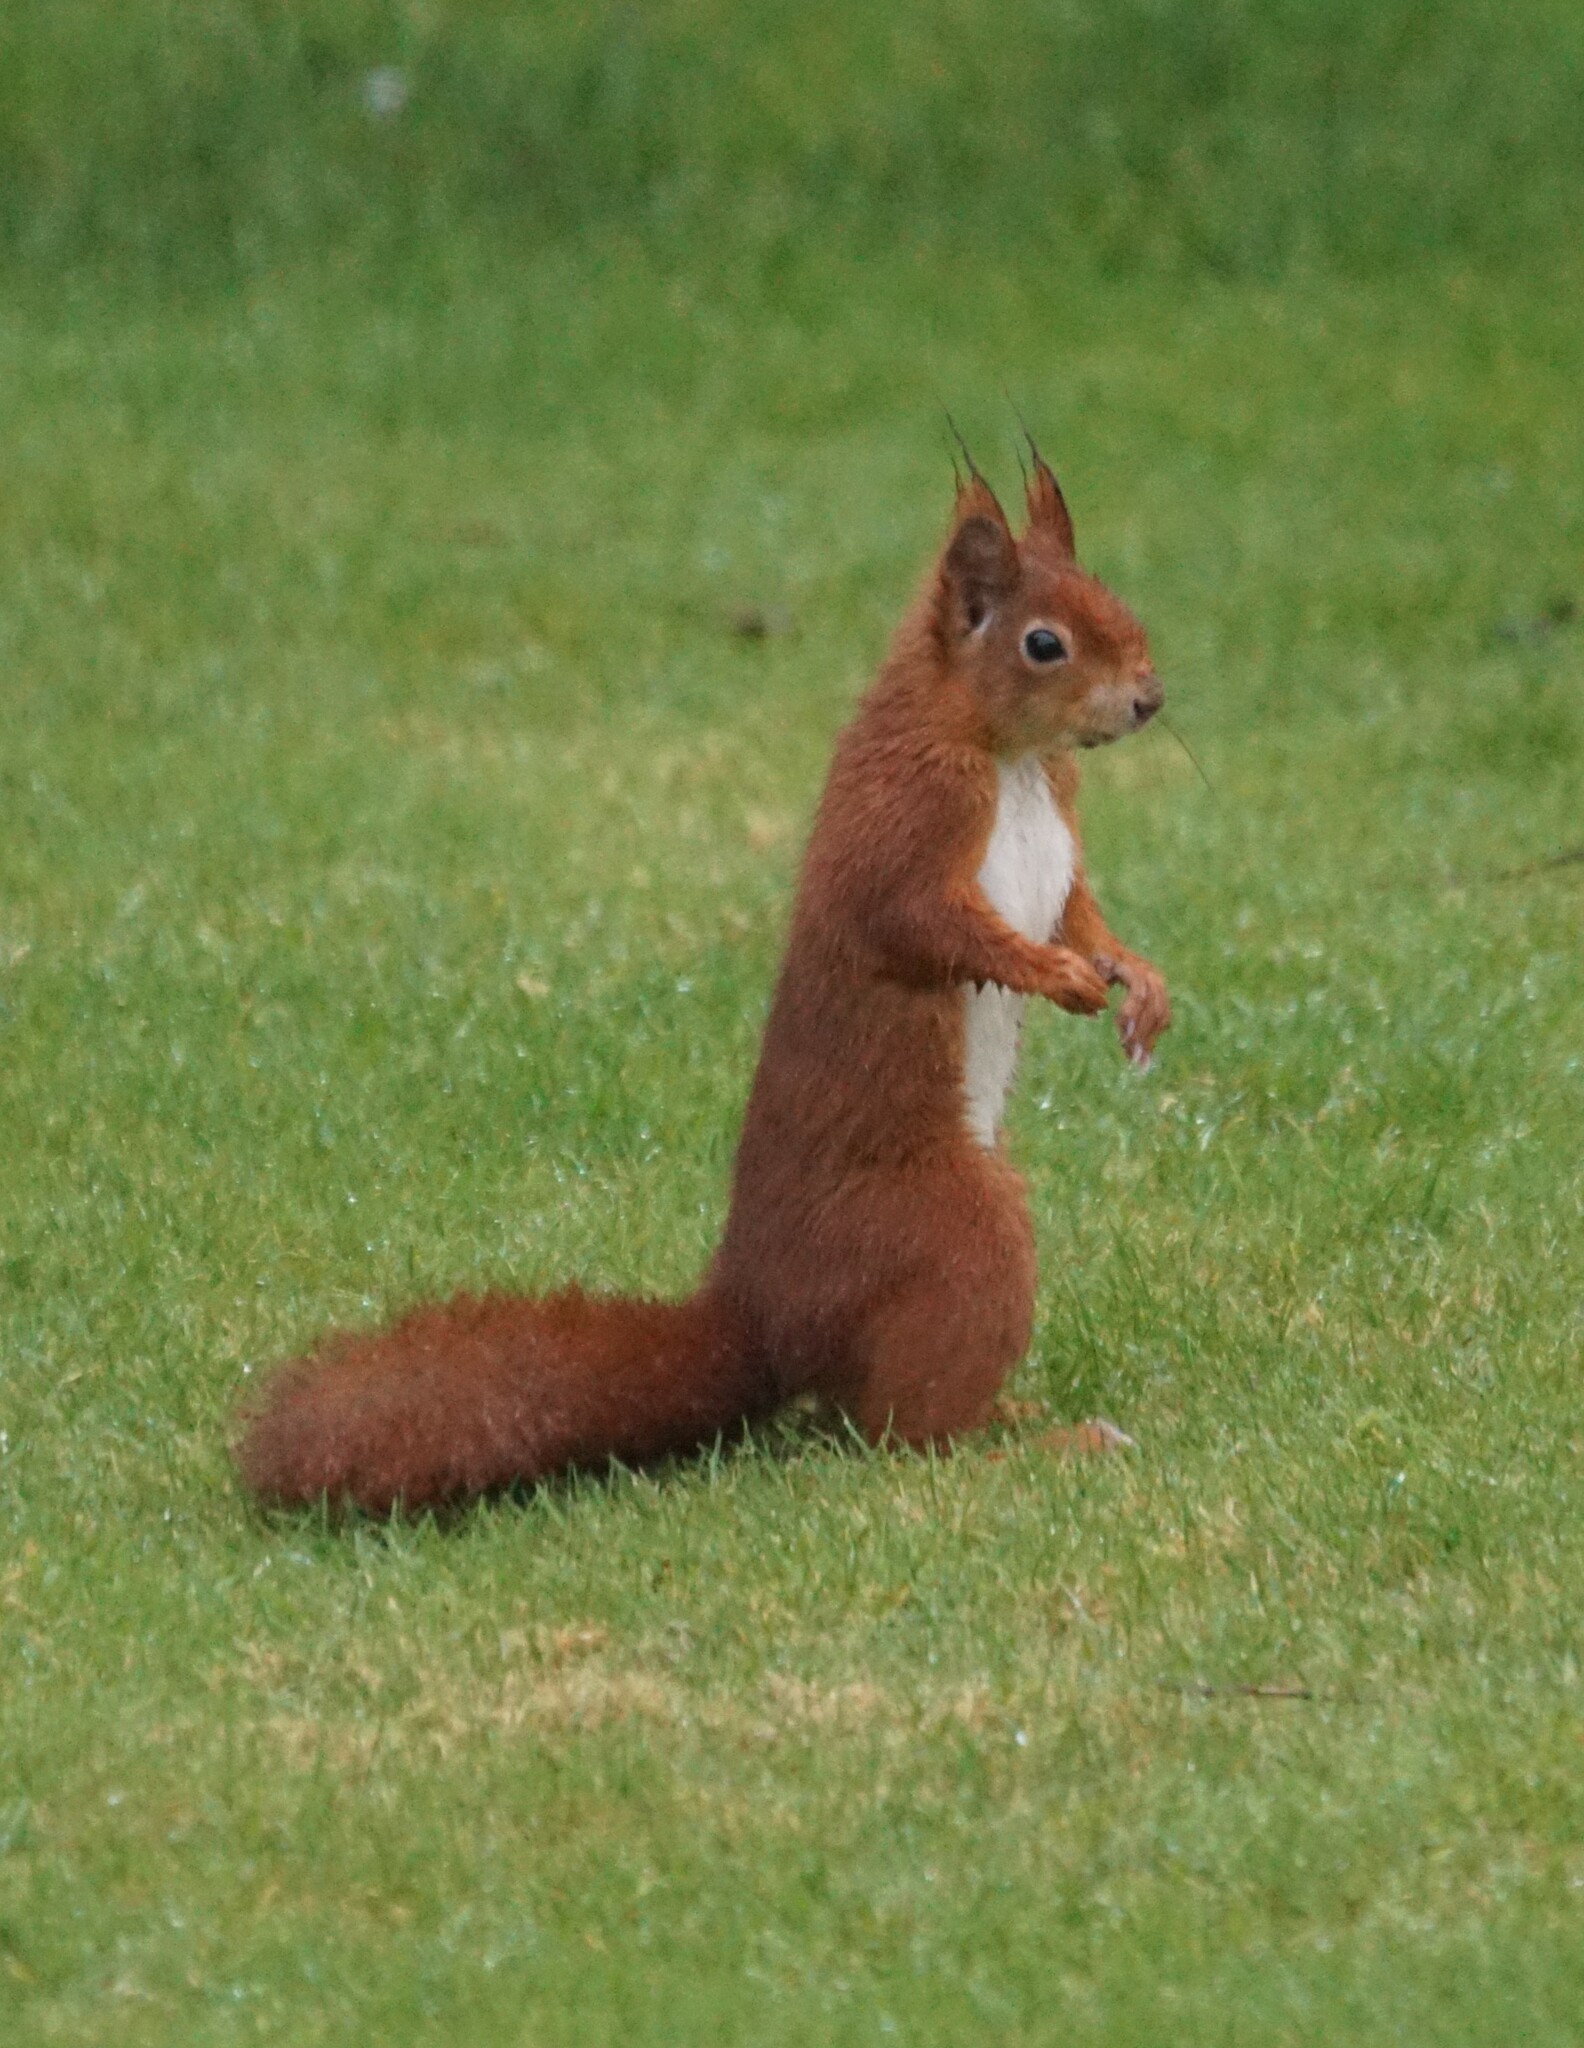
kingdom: Animalia
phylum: Chordata
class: Mammalia
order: Rodentia
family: Sciuridae
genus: Sciurus
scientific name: Sciurus vulgaris
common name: Eurasian red squirrel
